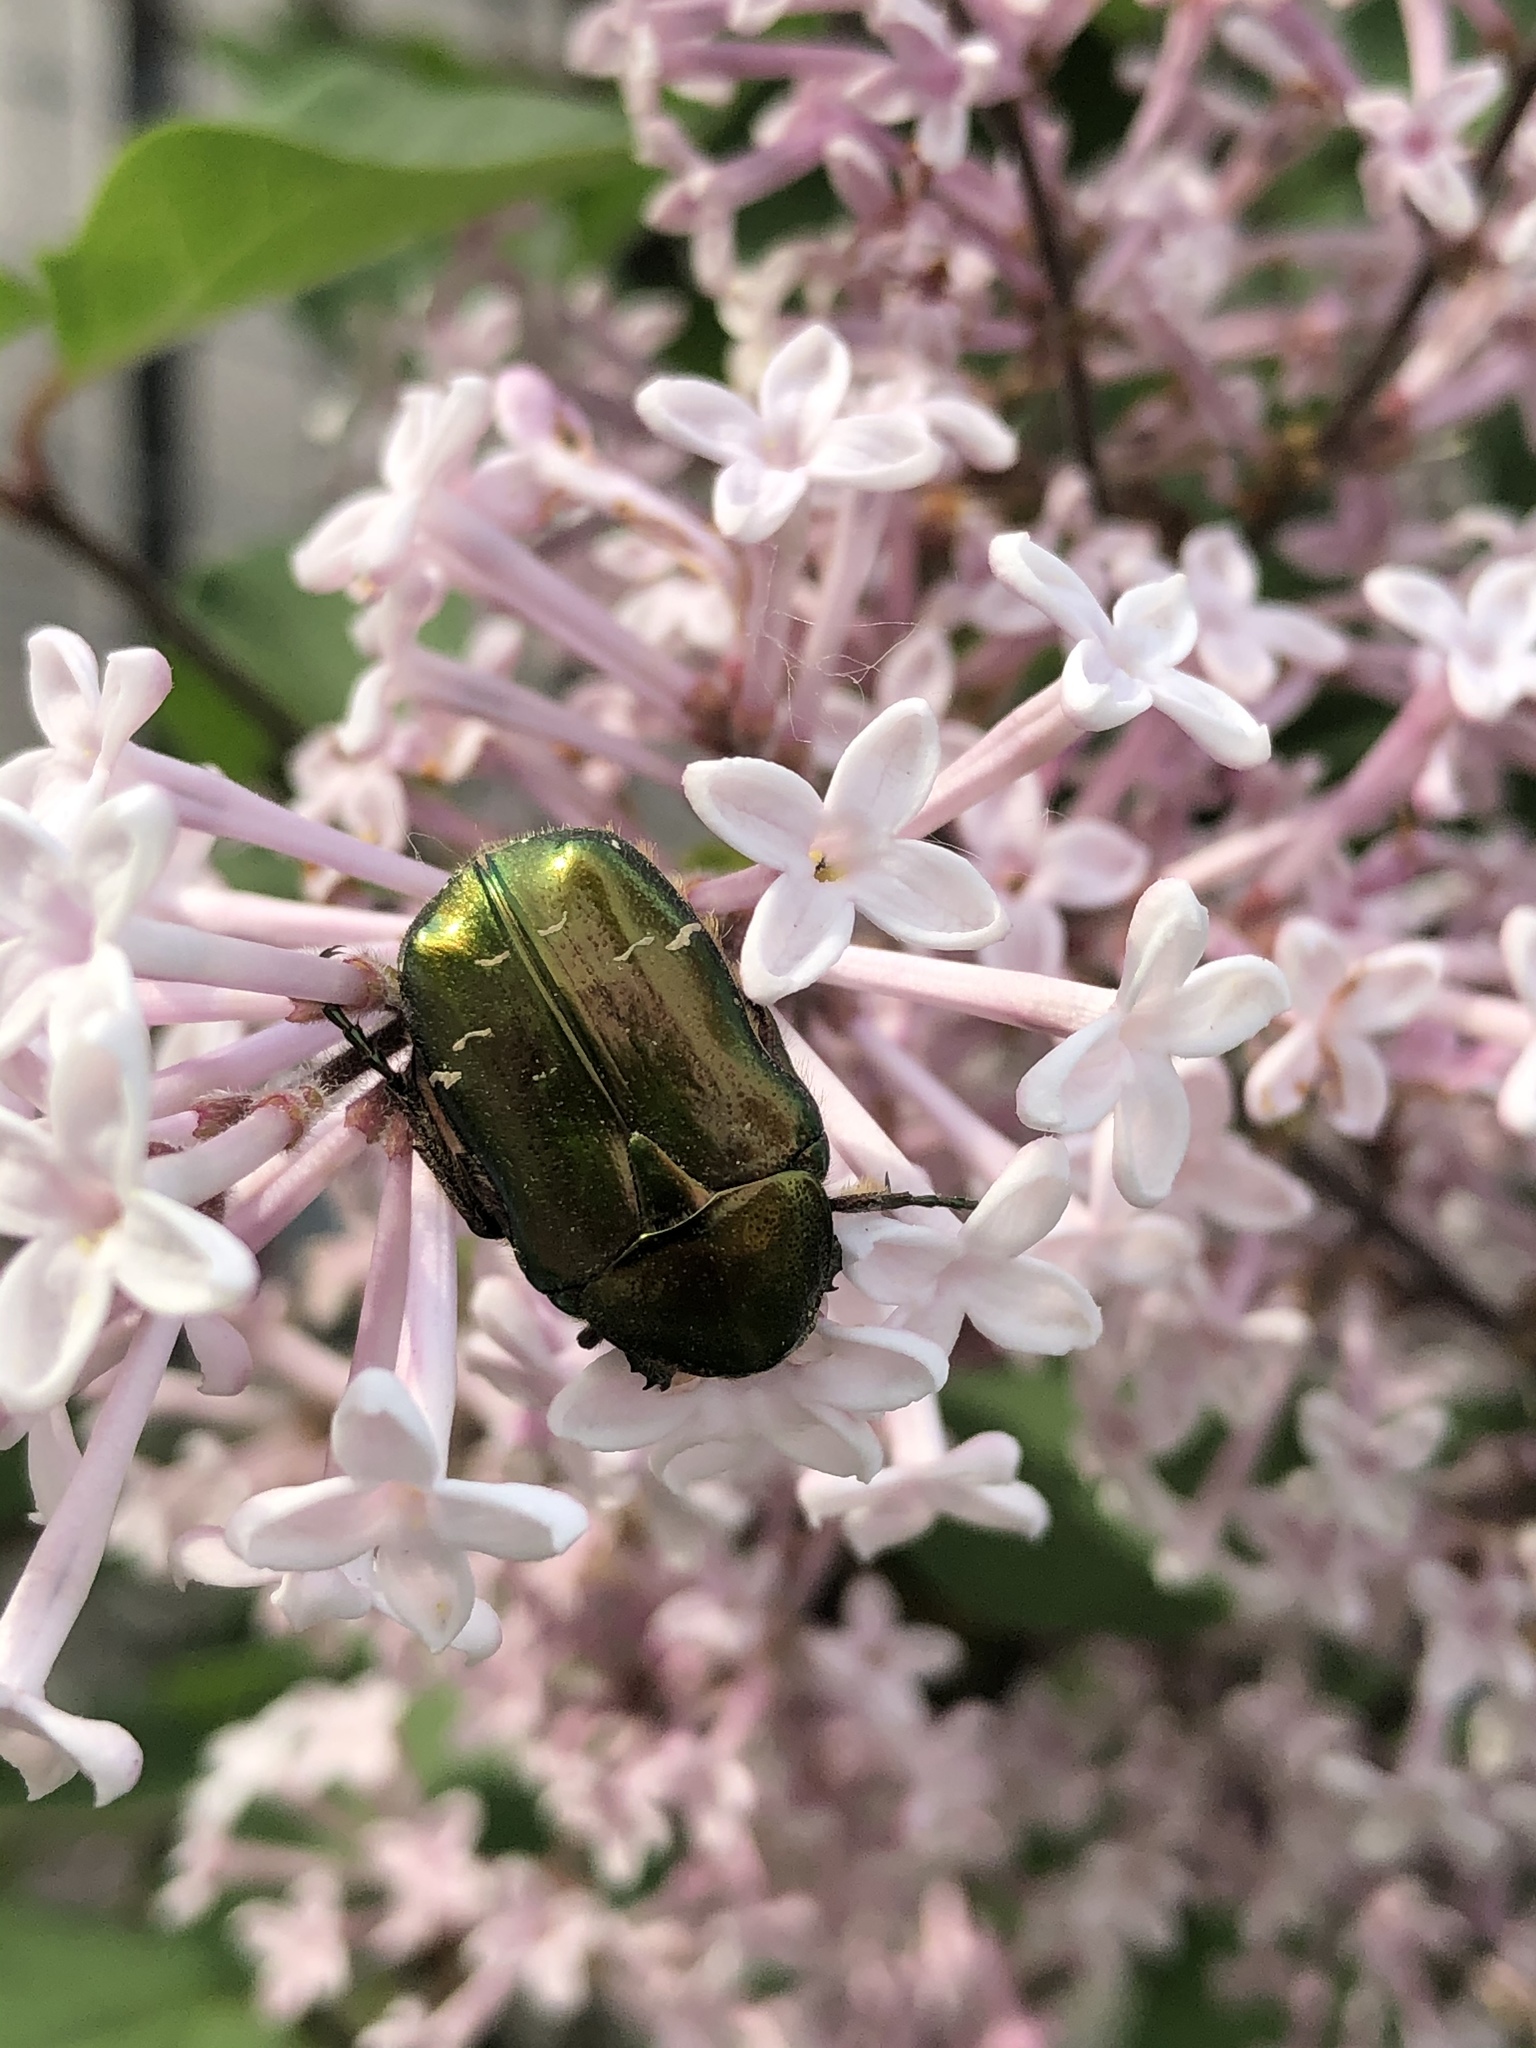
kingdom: Animalia
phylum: Arthropoda
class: Insecta
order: Coleoptera
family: Scarabaeidae
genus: Cetonia
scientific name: Cetonia aurata
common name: Rose chafer
